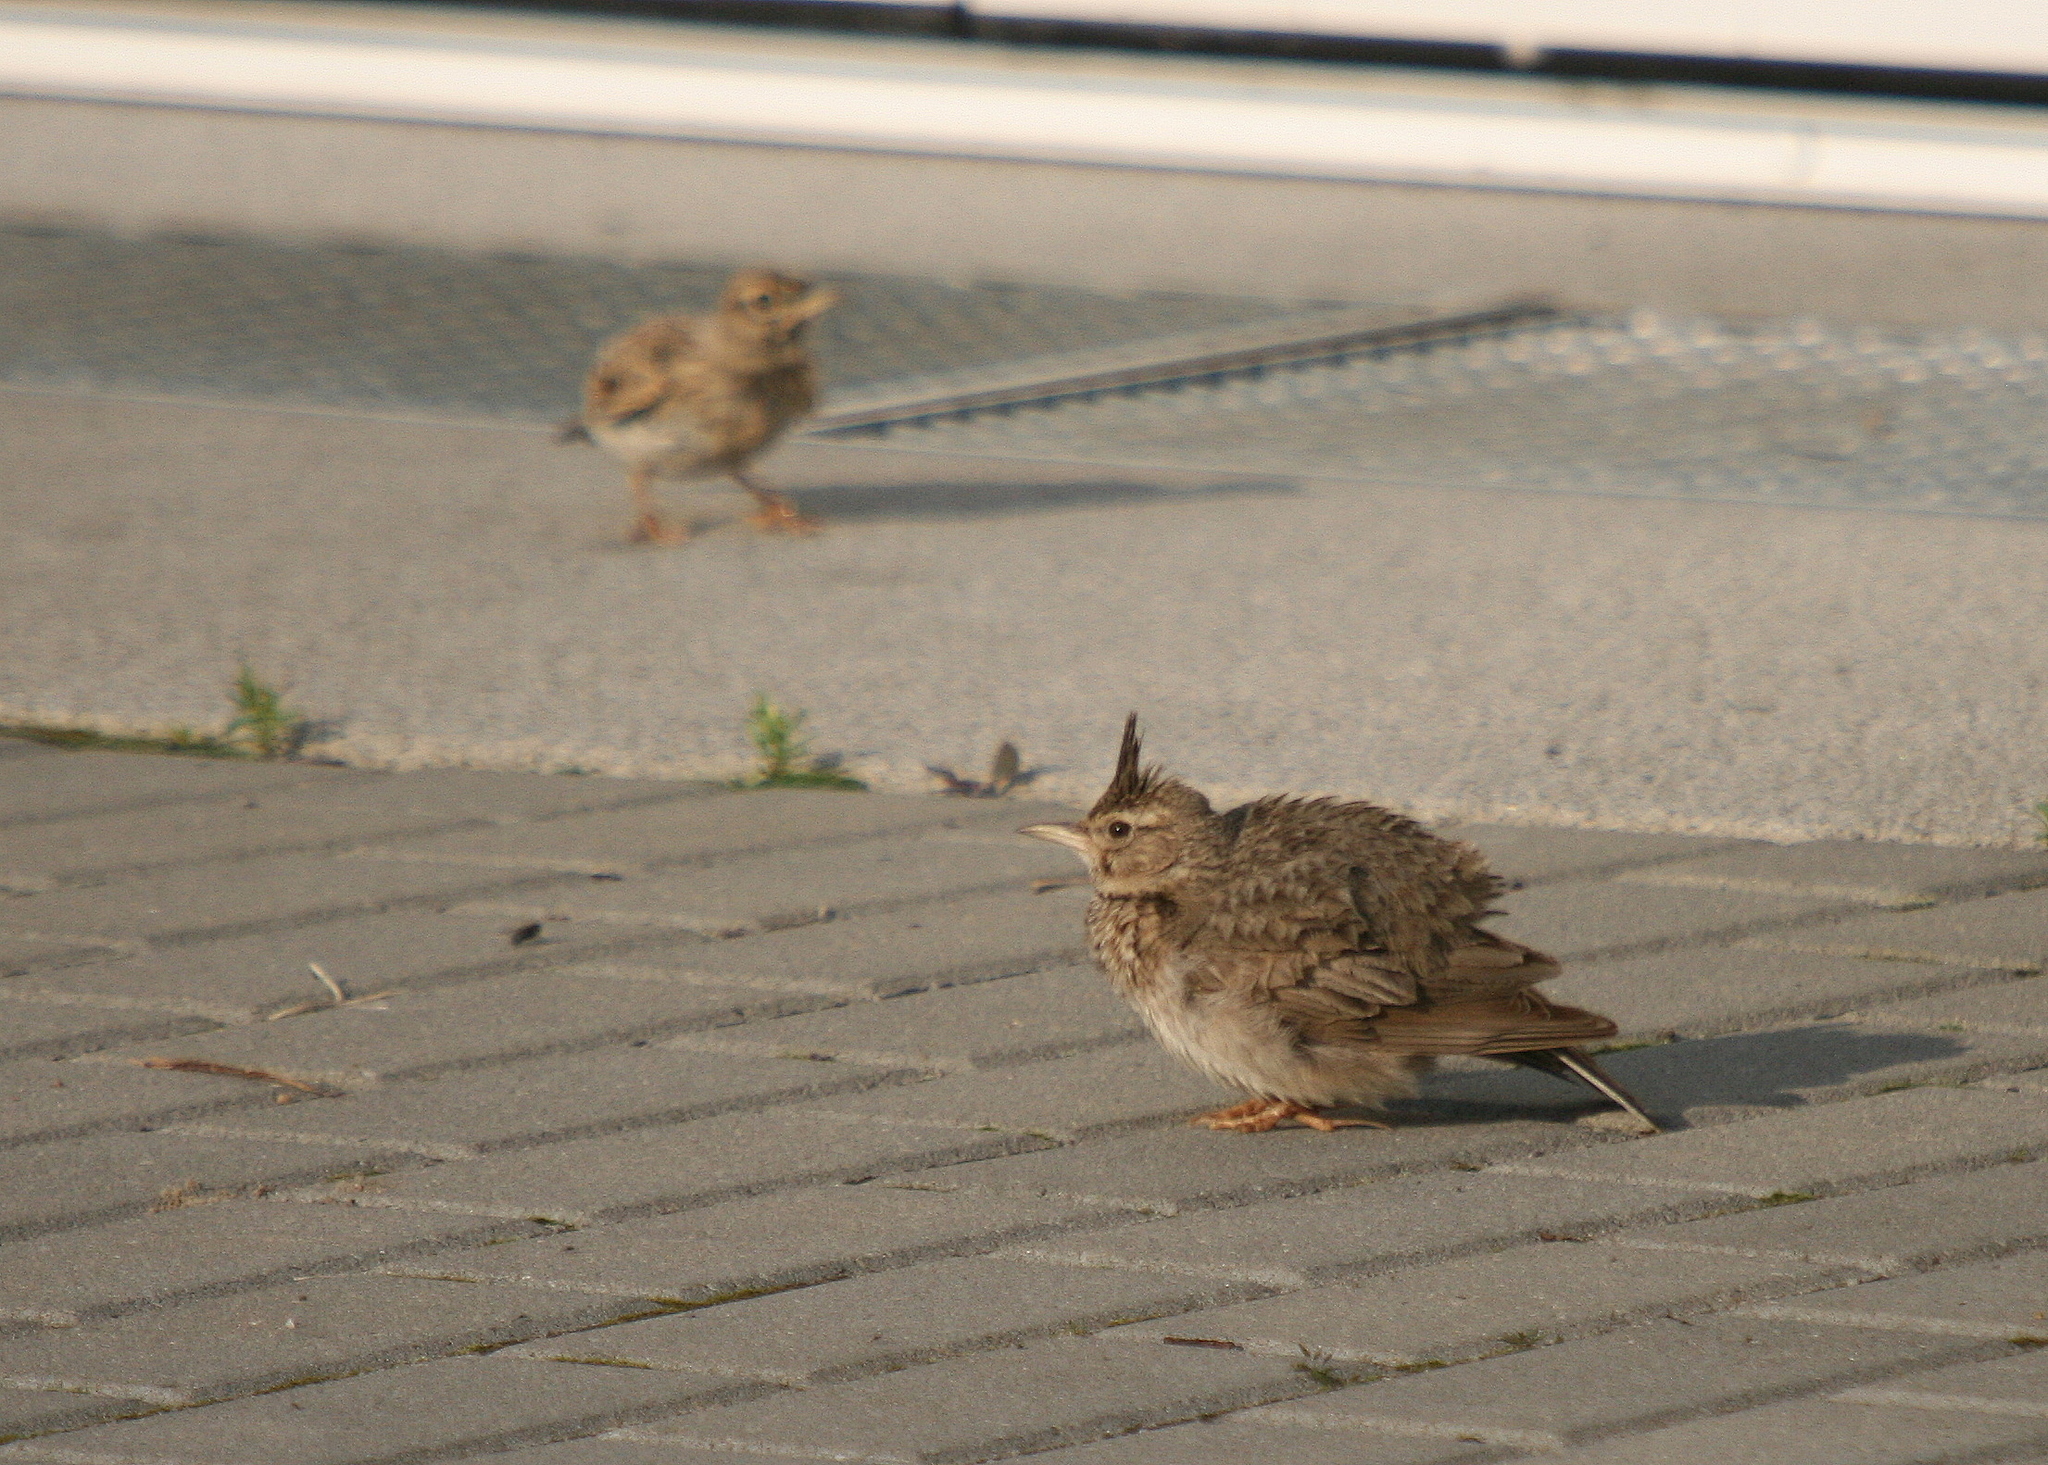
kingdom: Animalia
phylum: Chordata
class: Aves
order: Passeriformes
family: Alaudidae
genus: Galerida
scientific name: Galerida cristata
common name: Crested lark
